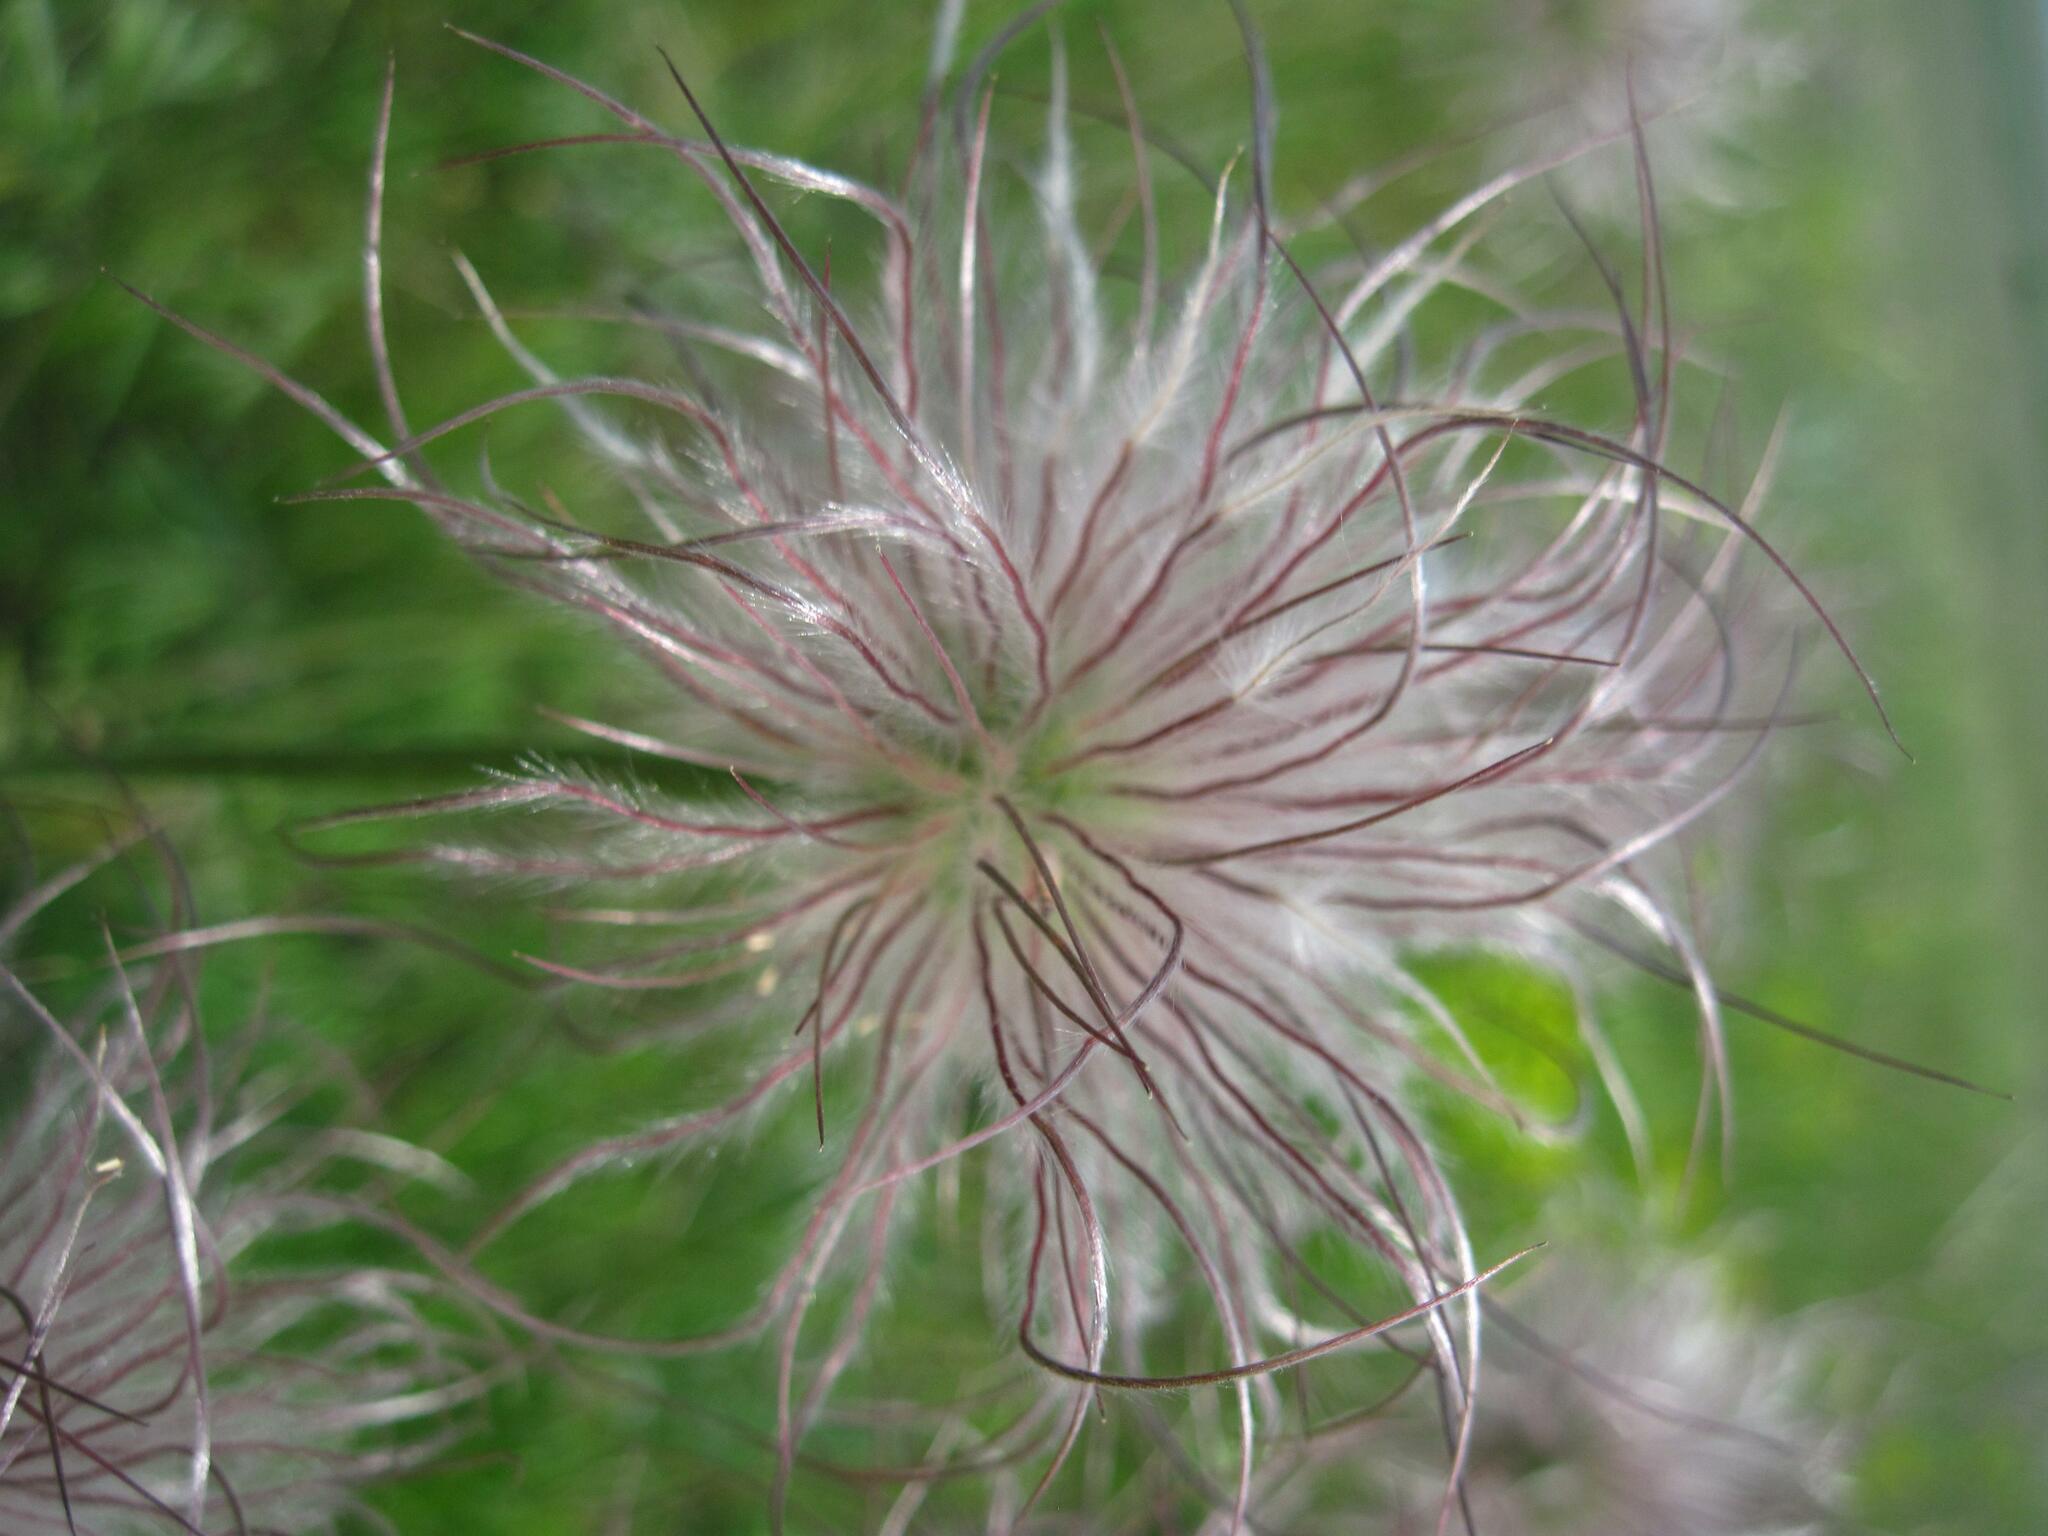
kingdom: Plantae
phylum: Tracheophyta
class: Magnoliopsida
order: Ranunculales
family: Ranunculaceae
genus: Pulsatilla
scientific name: Pulsatilla pratensis
